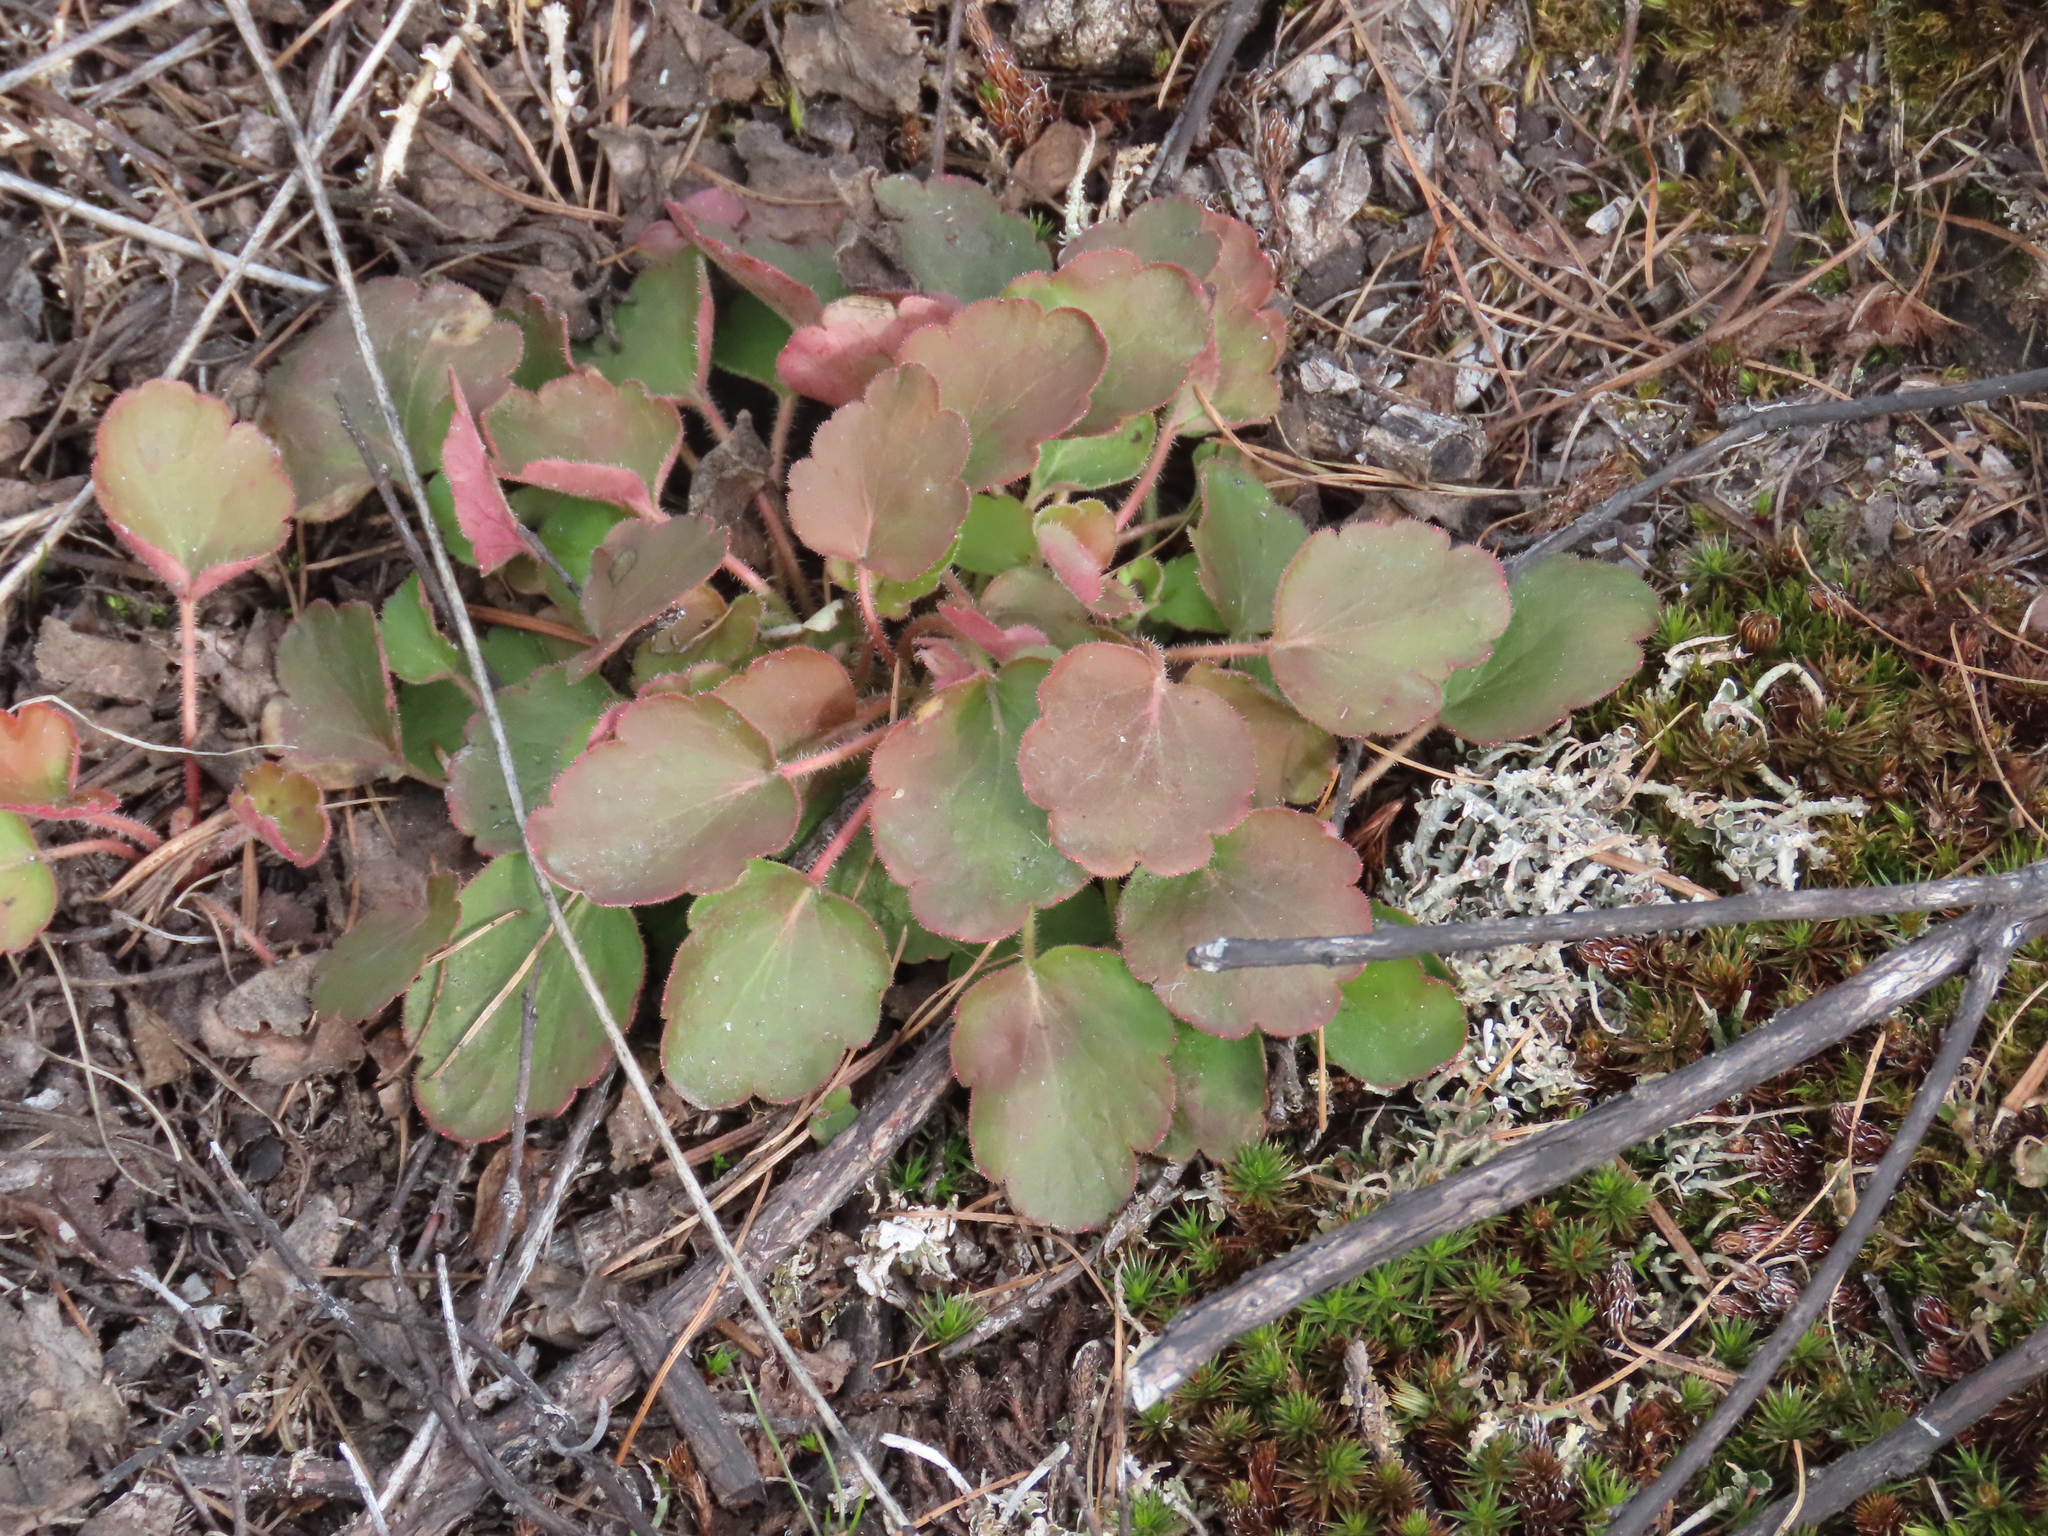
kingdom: Plantae
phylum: Tracheophyta
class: Magnoliopsida
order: Saxifragales
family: Saxifragaceae
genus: Heuchera
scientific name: Heuchera cylindrica
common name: Mat alumroot
